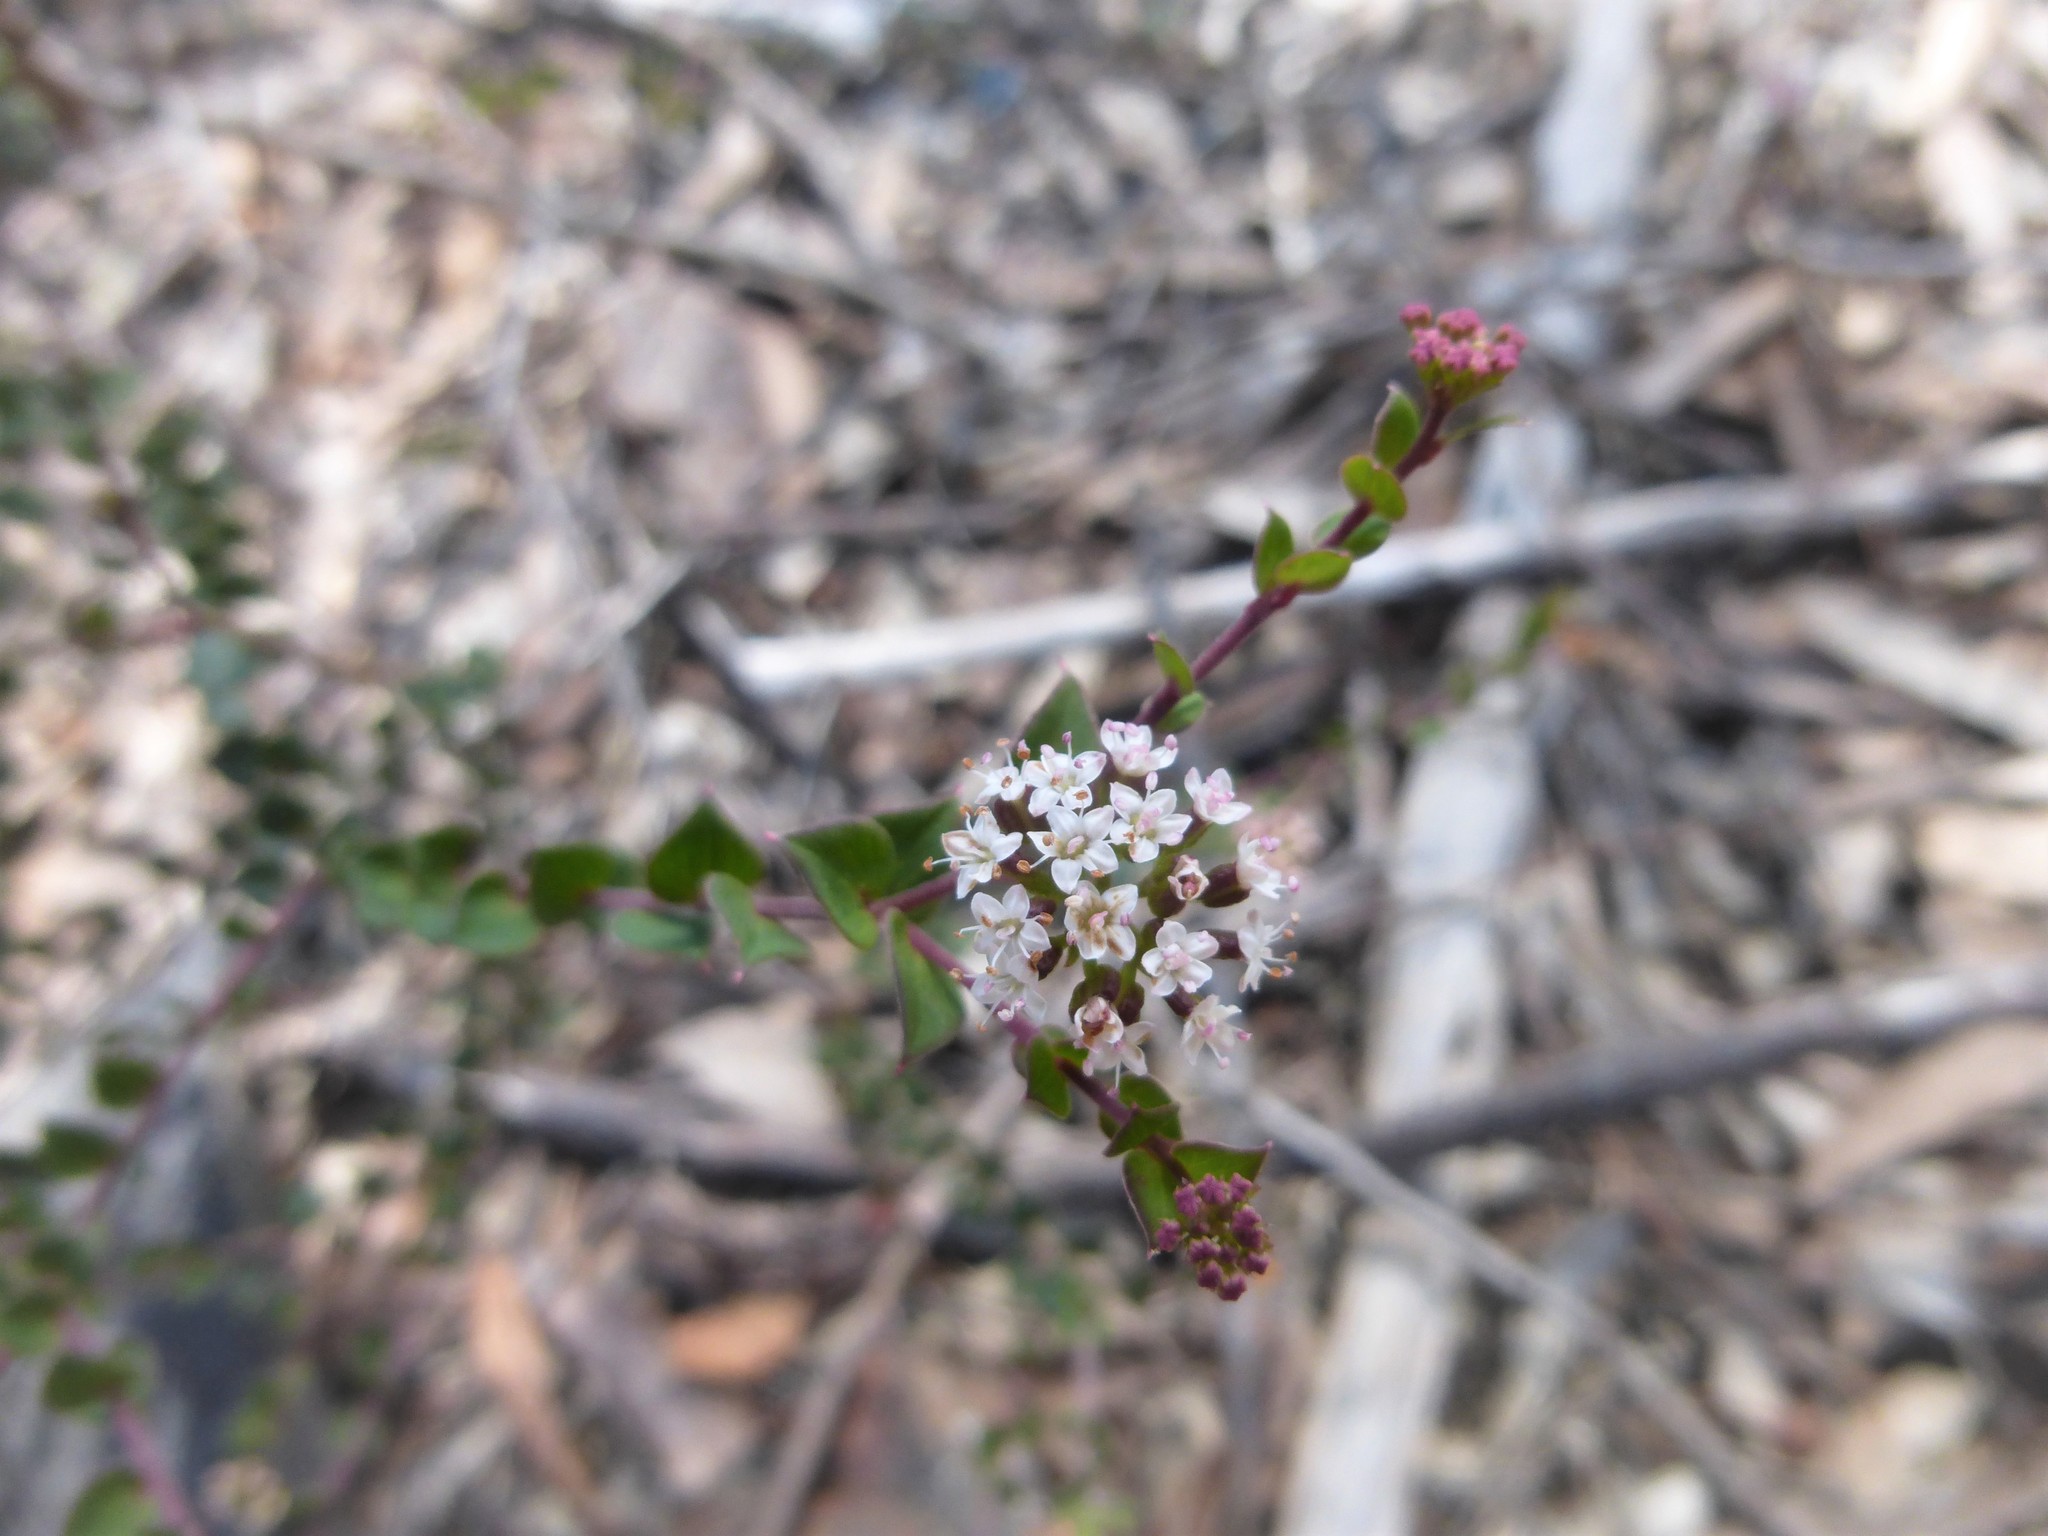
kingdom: Plantae
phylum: Tracheophyta
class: Magnoliopsida
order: Apiales
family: Apiaceae
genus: Platysace
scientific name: Platysace lanceolata
